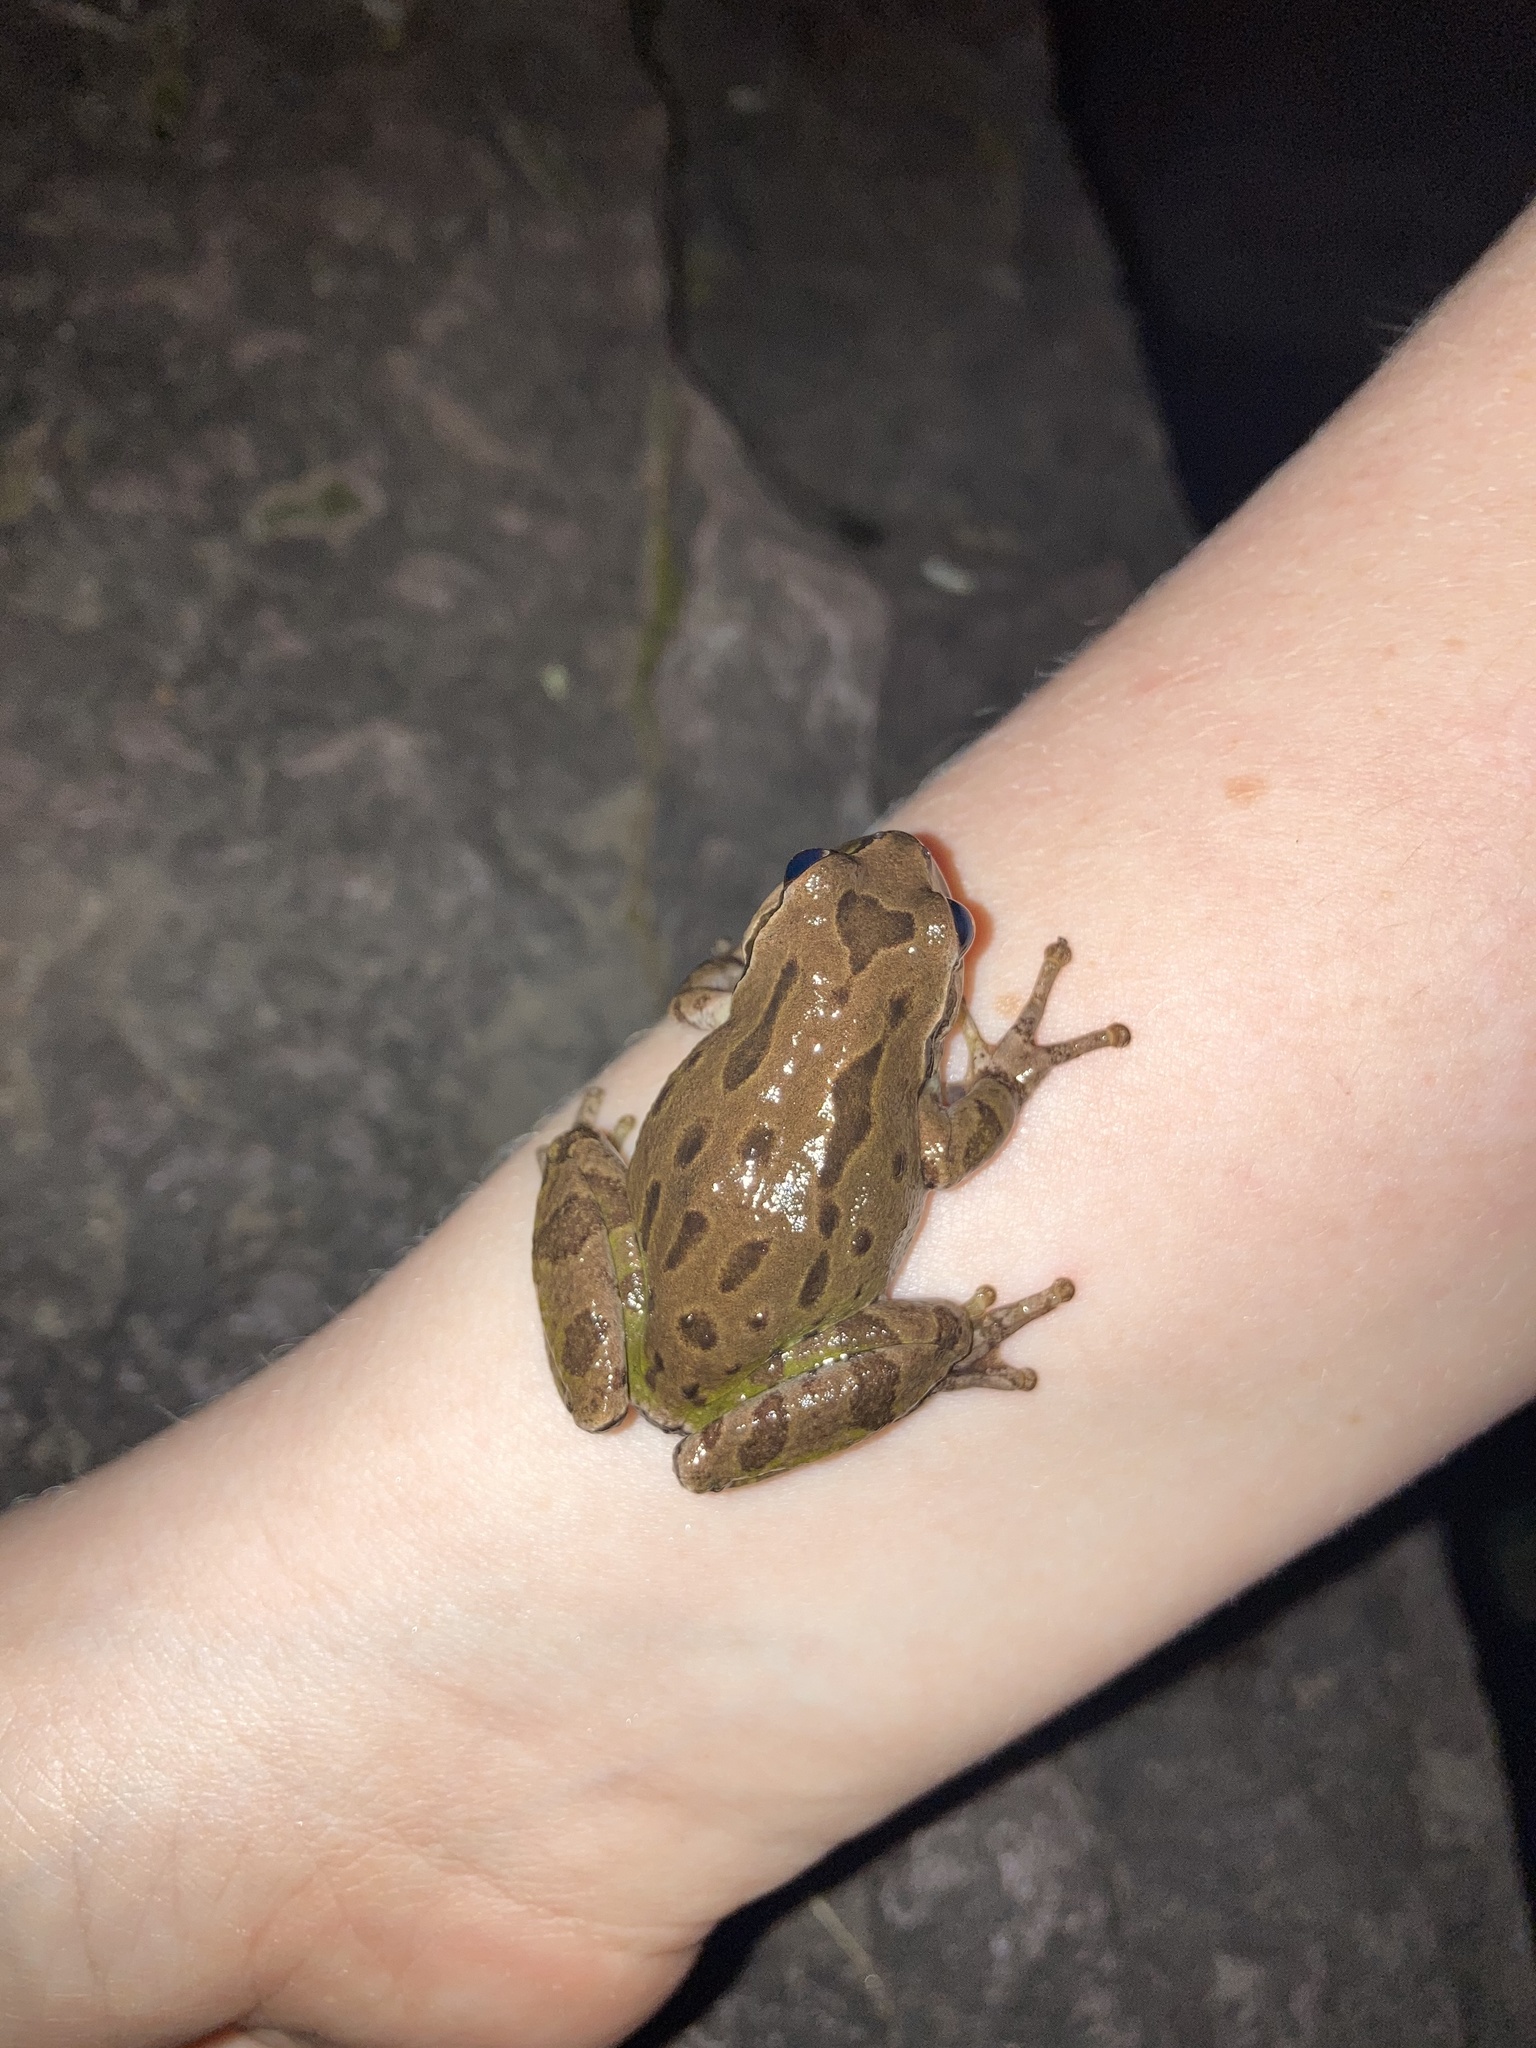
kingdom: Animalia
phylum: Chordata
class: Amphibia
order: Anura
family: Hylidae
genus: Pseudacris
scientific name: Pseudacris regilla
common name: Pacific chorus frog
